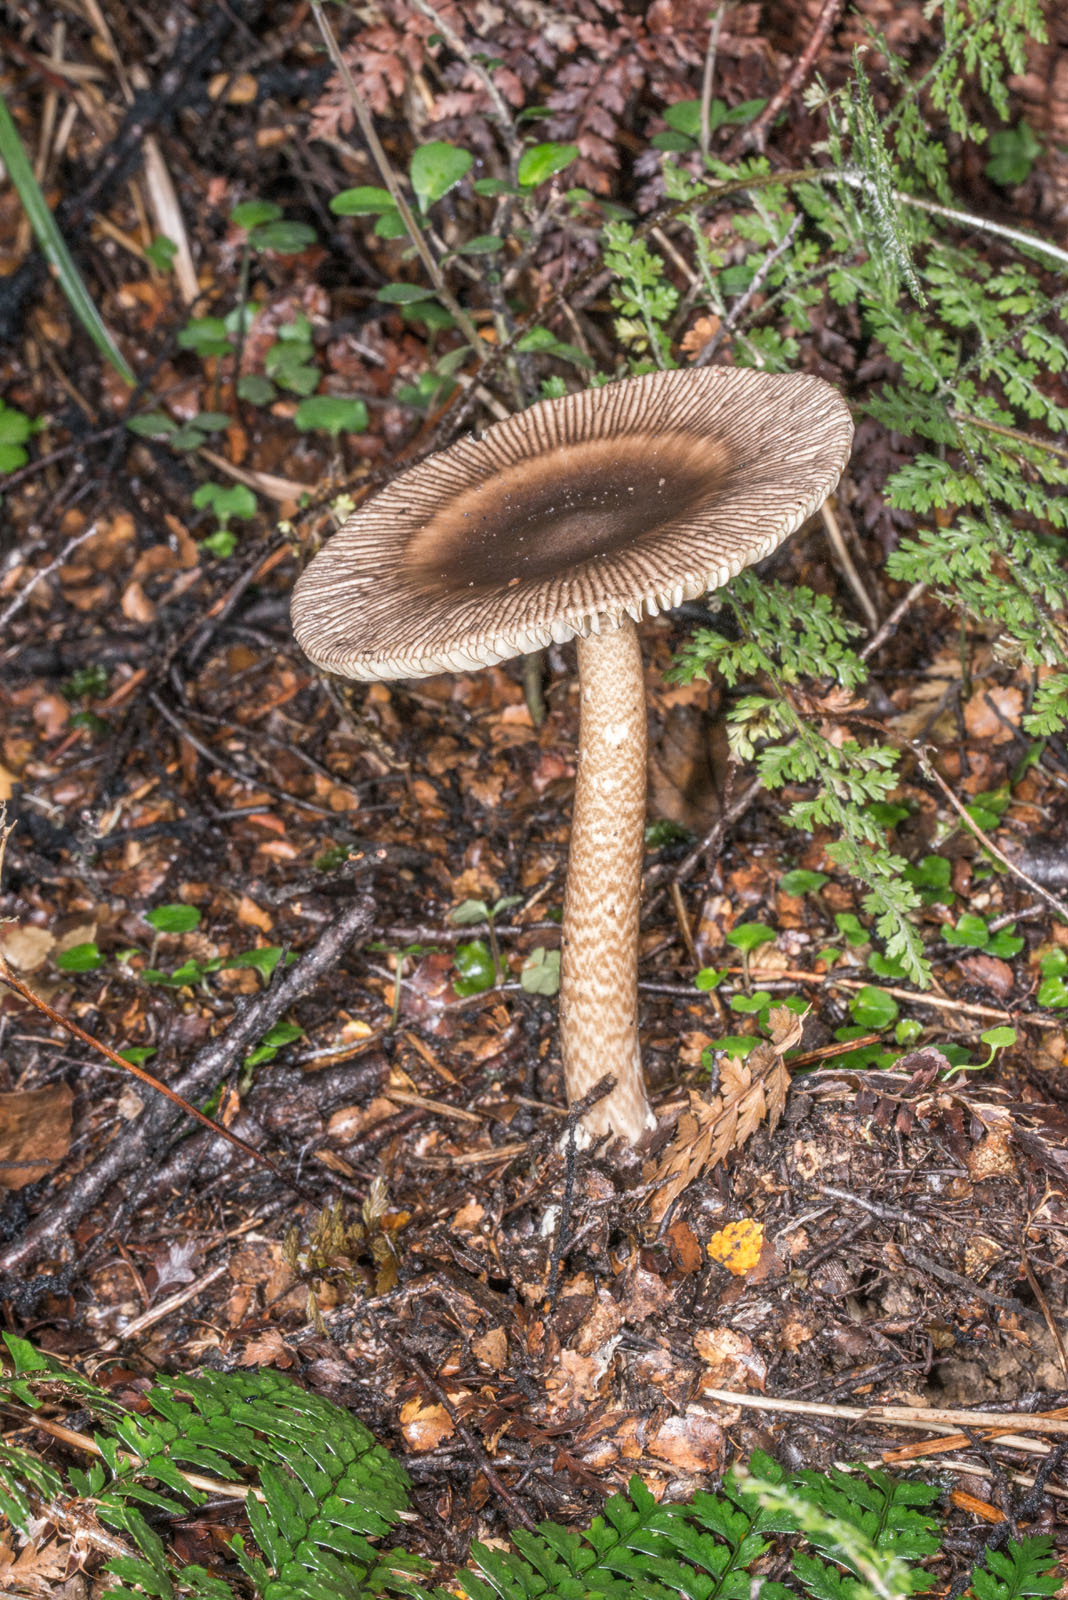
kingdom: Fungi
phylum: Basidiomycota
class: Agaricomycetes
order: Agaricales
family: Amanitaceae
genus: Amanita
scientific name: Amanita pekeoides
